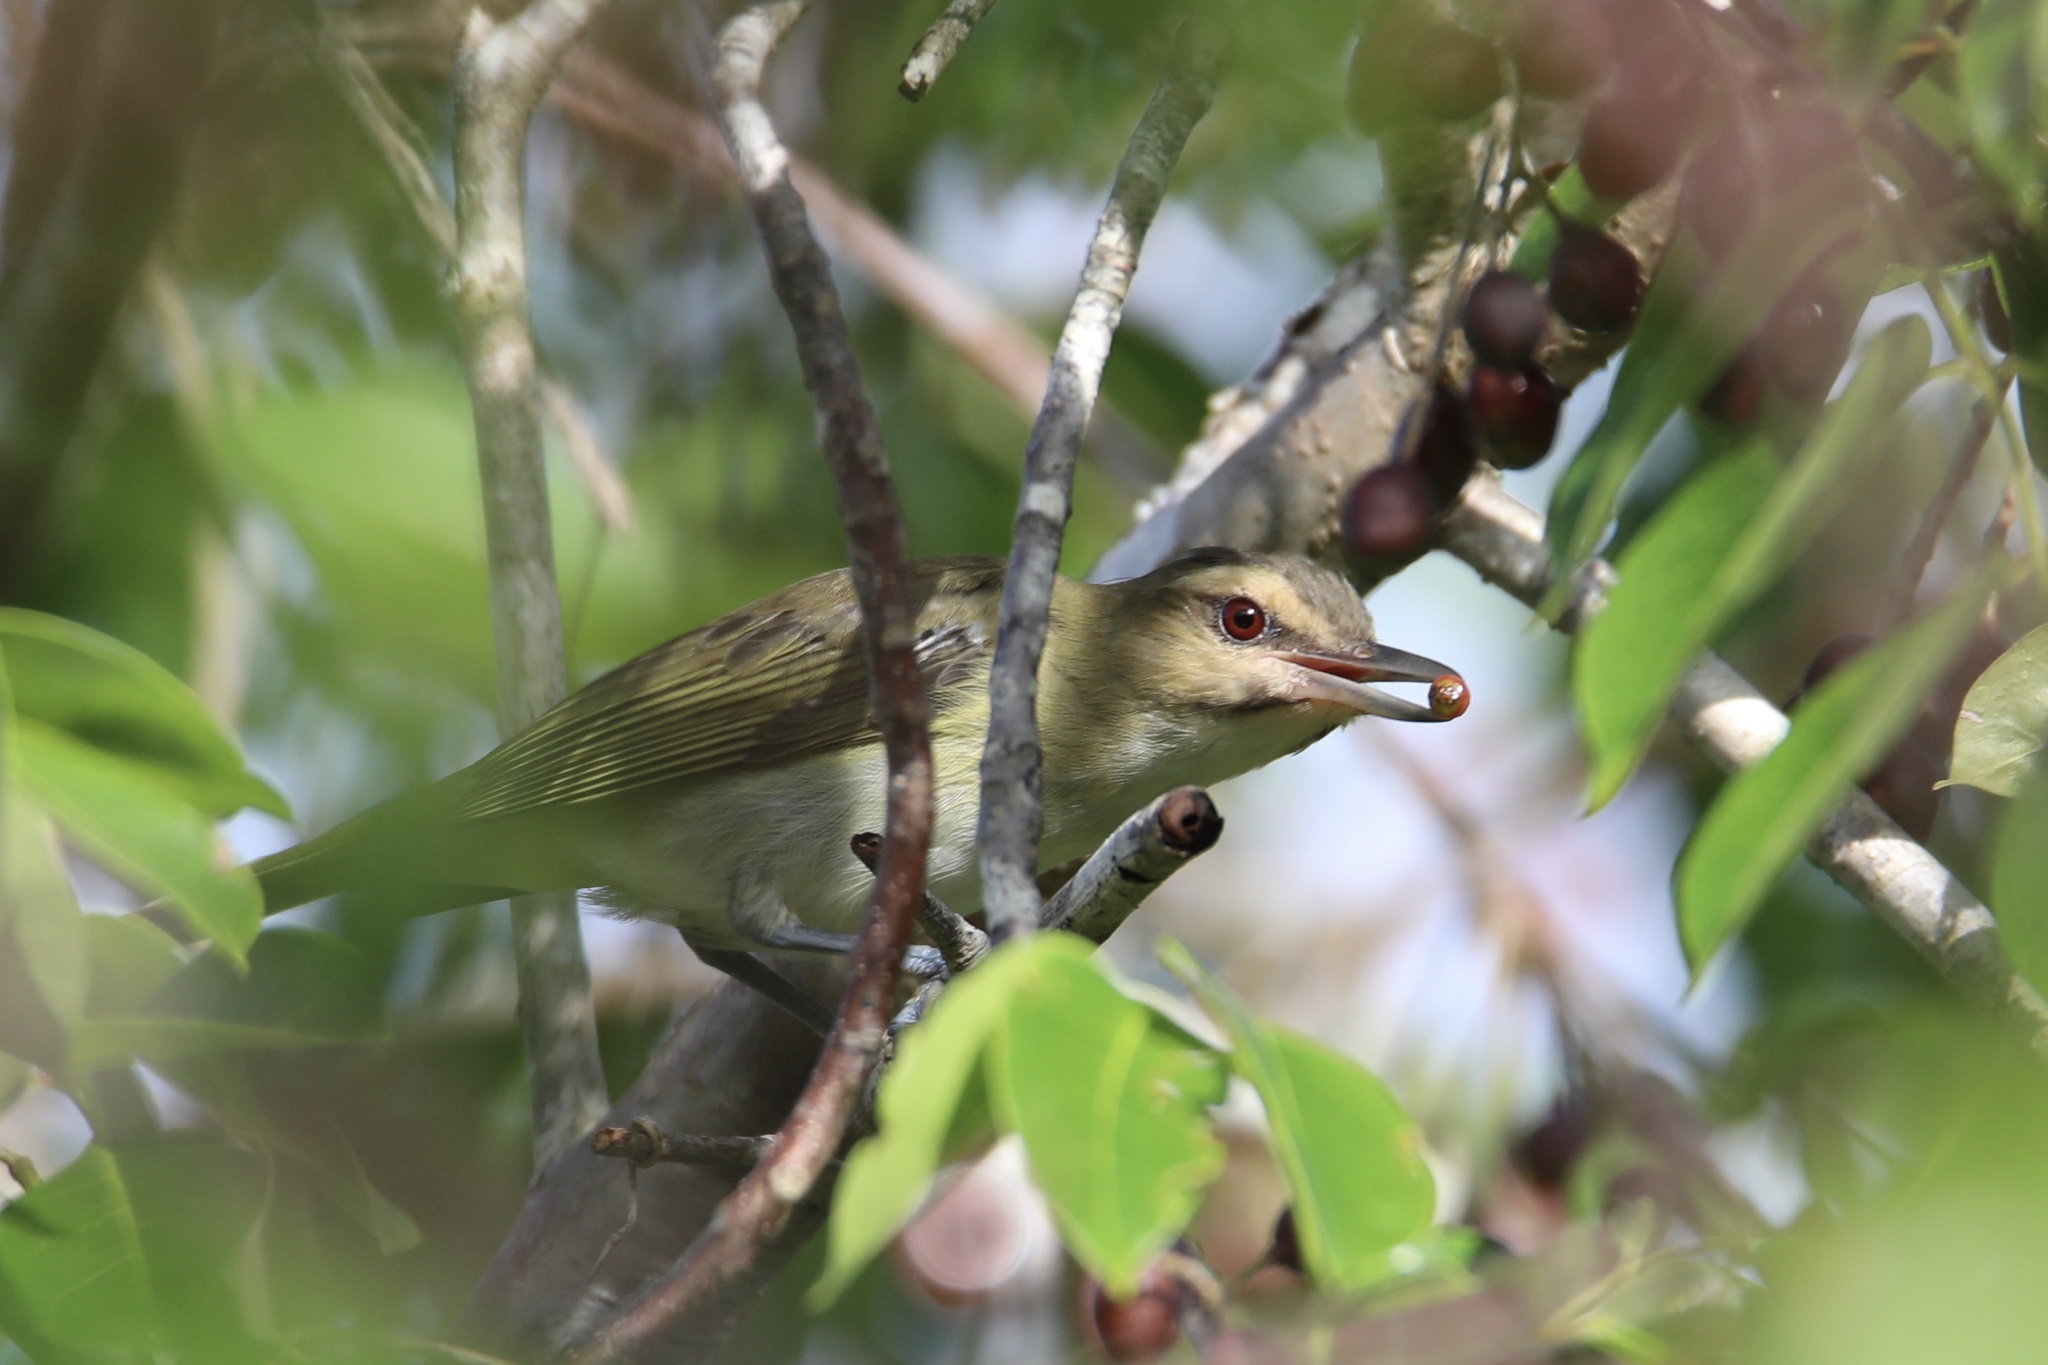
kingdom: Animalia
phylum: Chordata
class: Aves
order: Passeriformes
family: Vireonidae
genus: Vireo
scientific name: Vireo altiloquus
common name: Black-whiskered vireo
